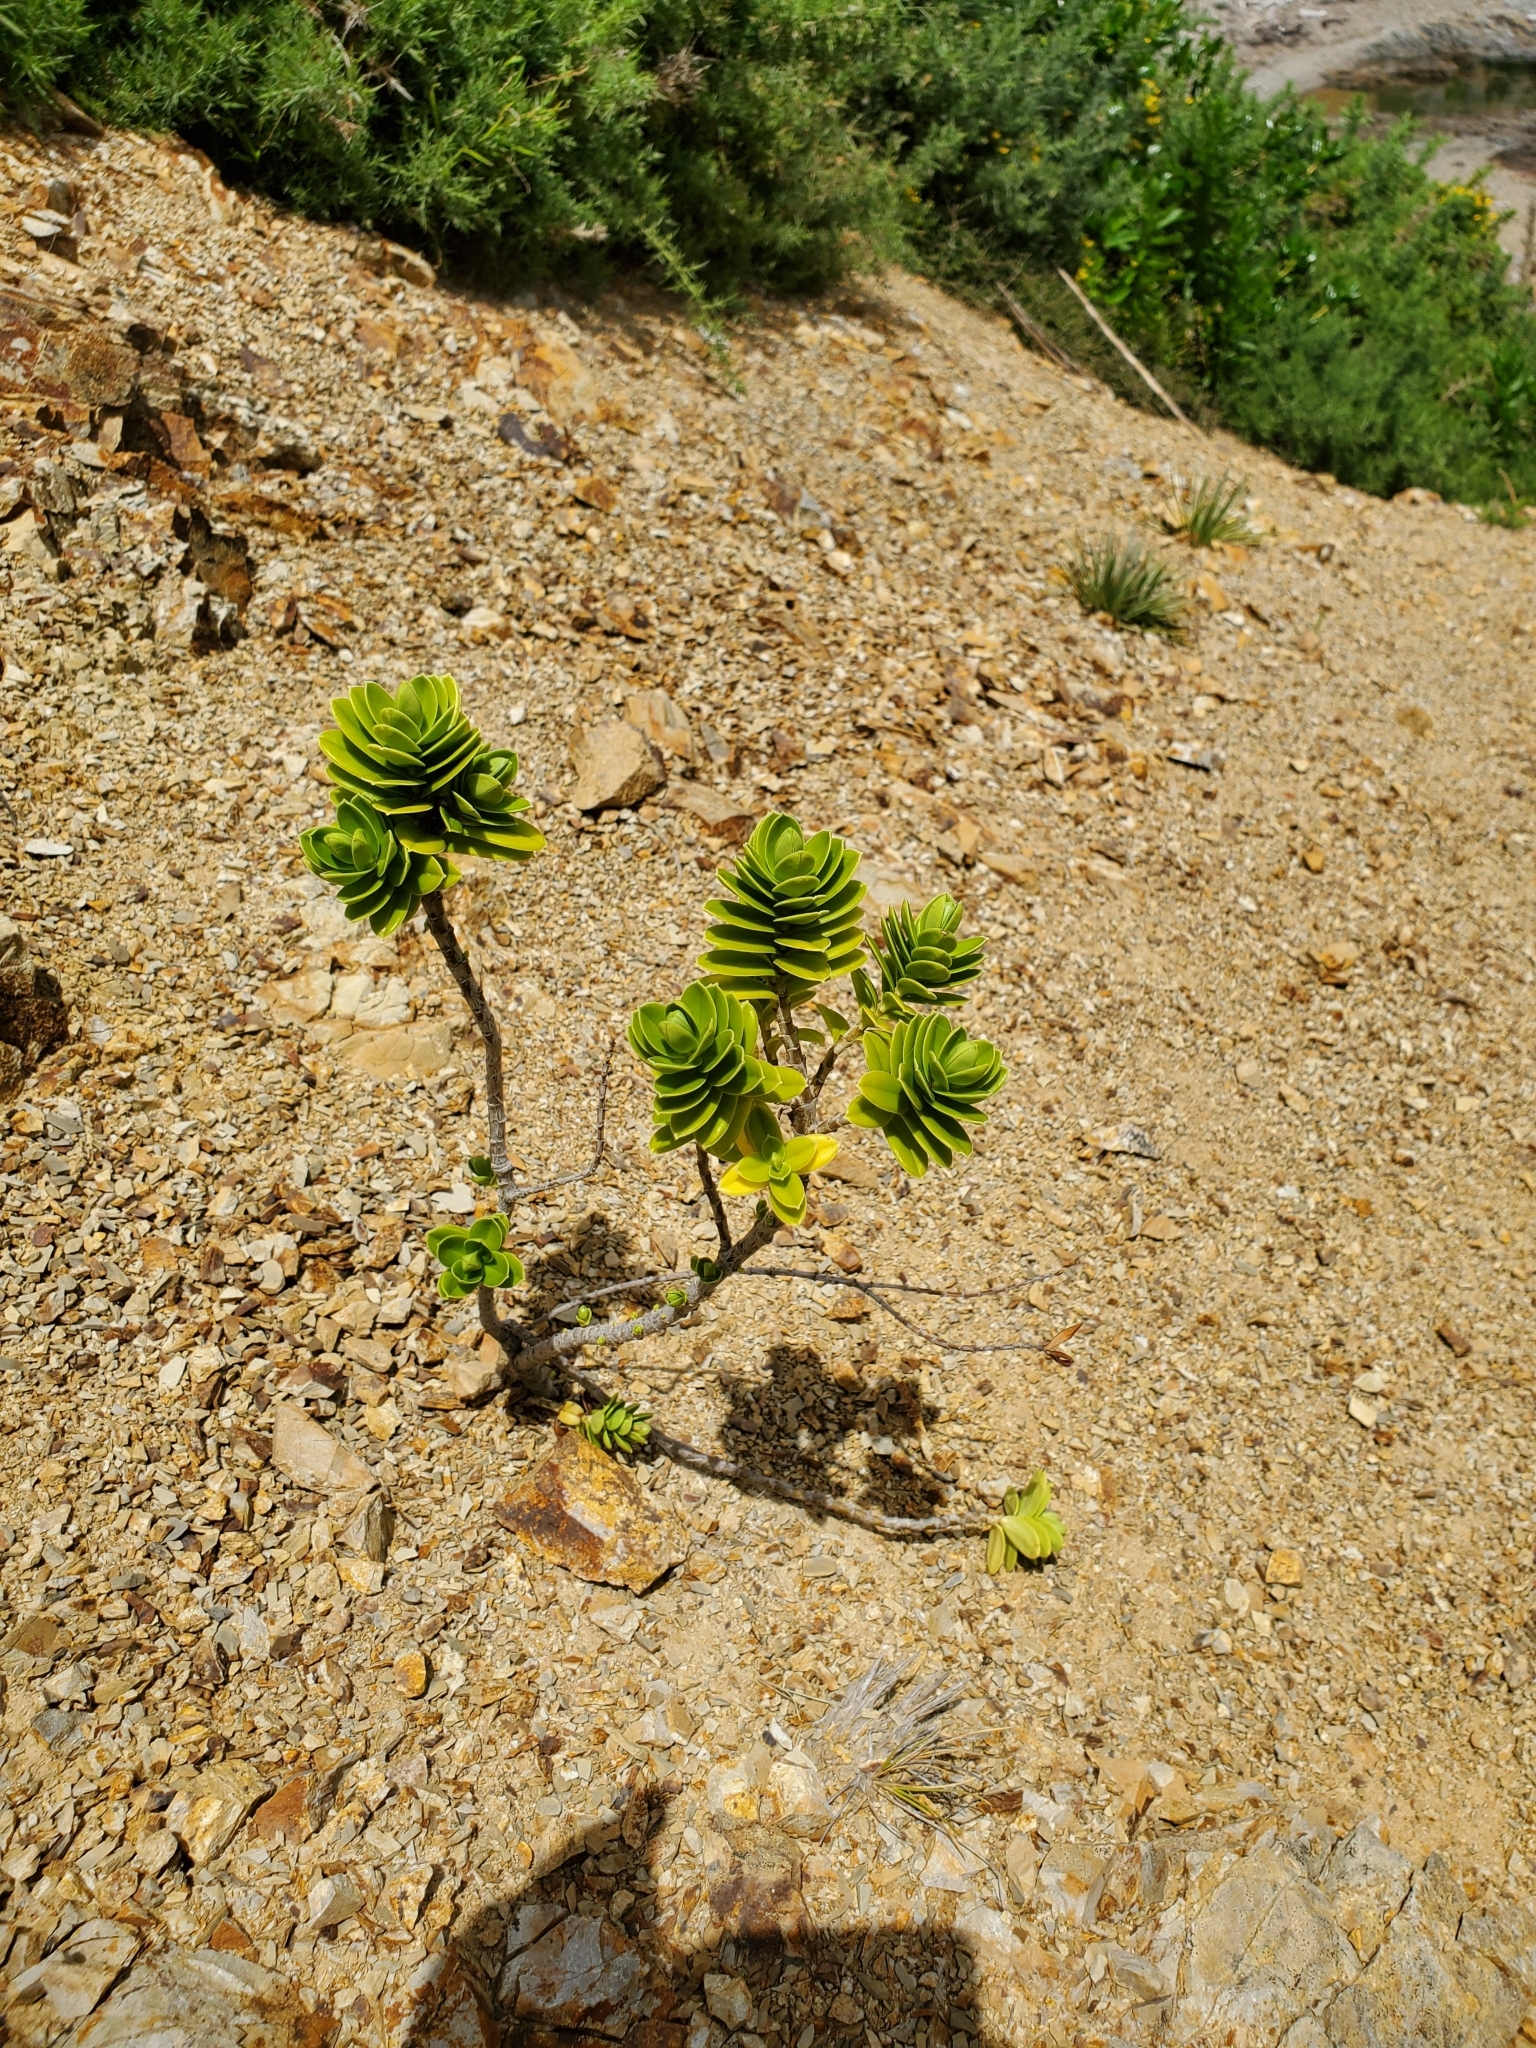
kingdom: Plantae
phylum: Tracheophyta
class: Magnoliopsida
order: Lamiales
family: Plantaginaceae
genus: Veronica
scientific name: Veronica elliptica
